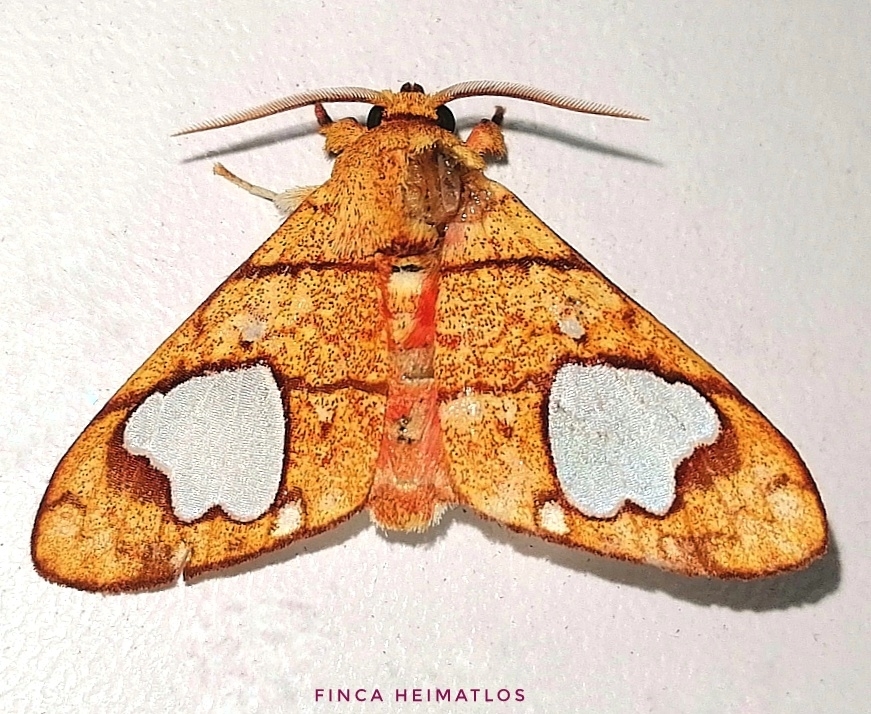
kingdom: Animalia
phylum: Arthropoda
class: Insecta
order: Lepidoptera
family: Erebidae
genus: Zatrephes
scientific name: Zatrephes trailii
